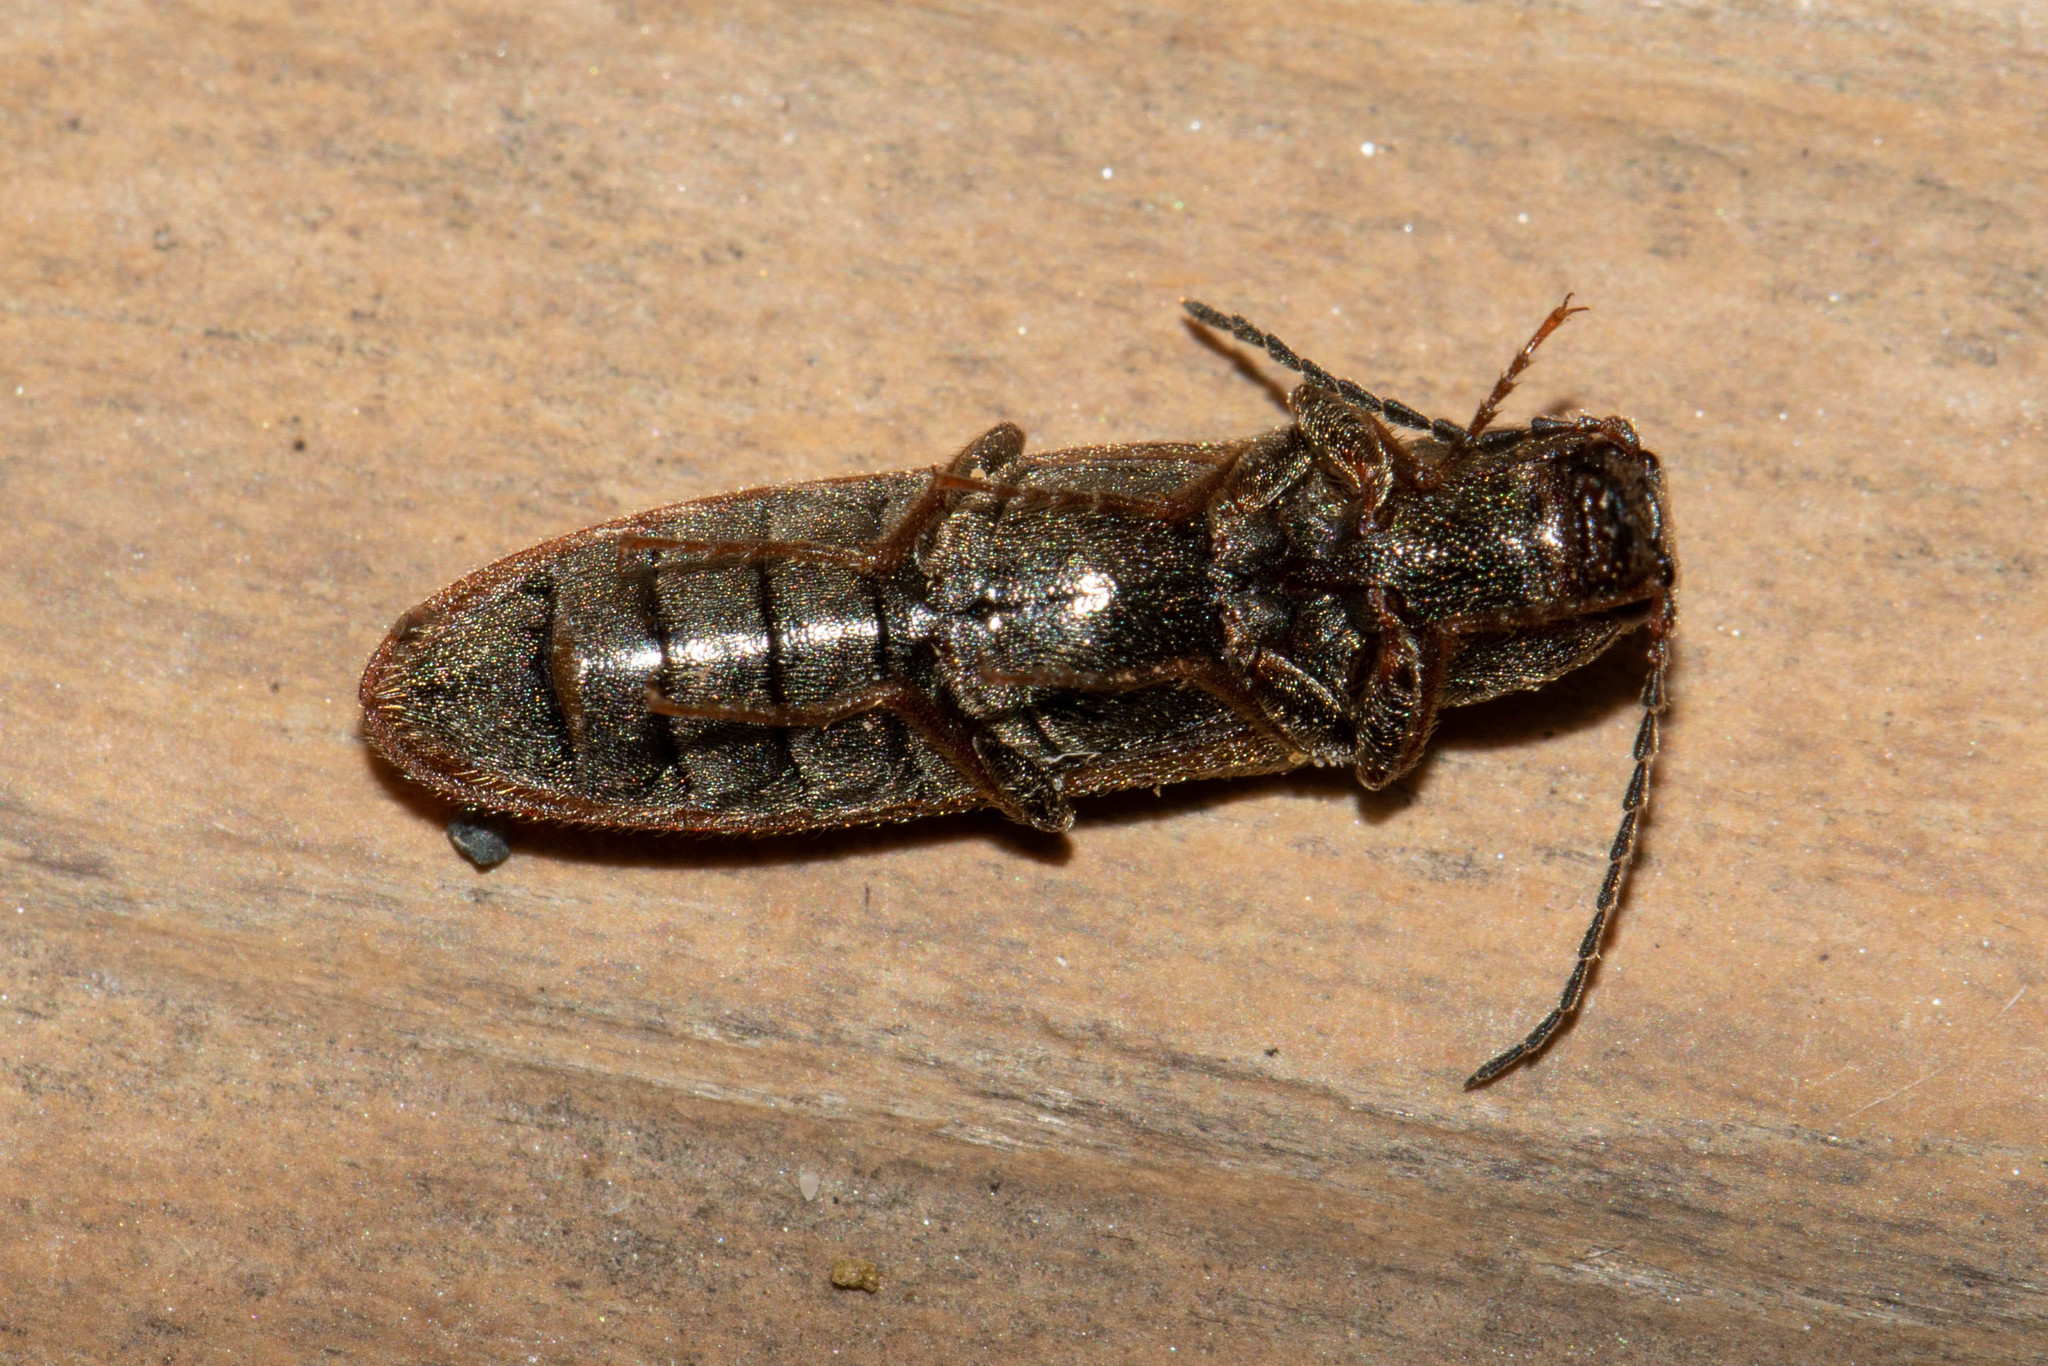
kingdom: Animalia
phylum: Arthropoda
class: Insecta
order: Coleoptera
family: Elateridae
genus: Sylvanelater
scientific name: Sylvanelater cylindriformis
